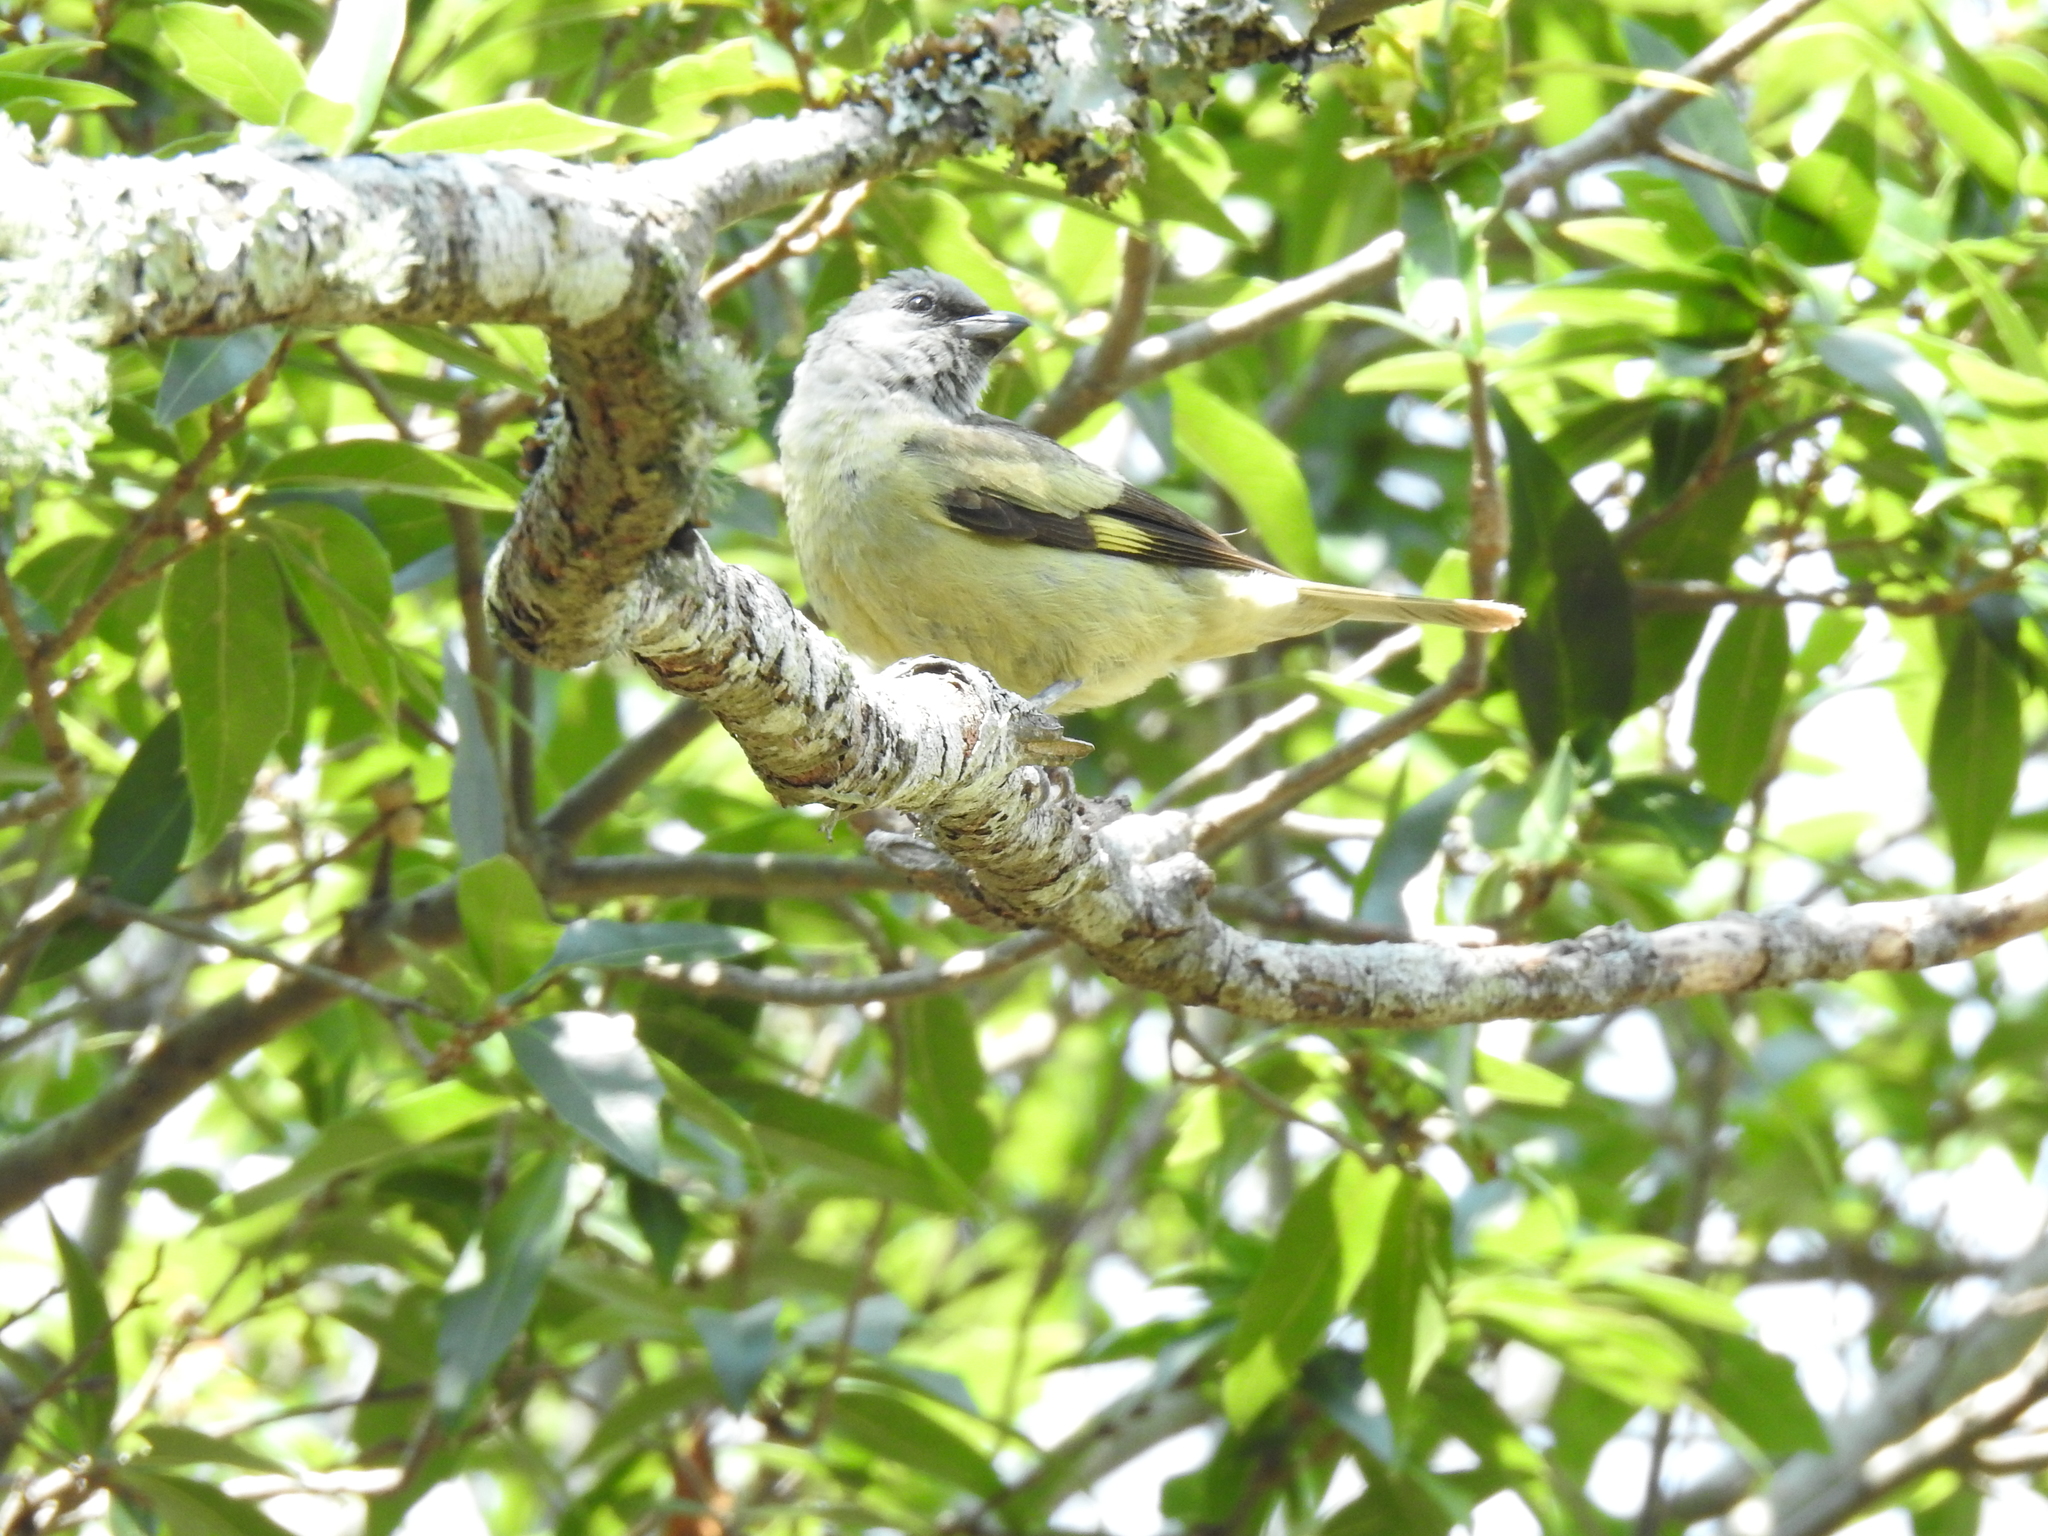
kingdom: Animalia
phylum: Chordata
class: Aves
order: Passeriformes
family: Thraupidae
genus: Thraupis
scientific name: Thraupis abbas
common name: Yellow-winged tanager
